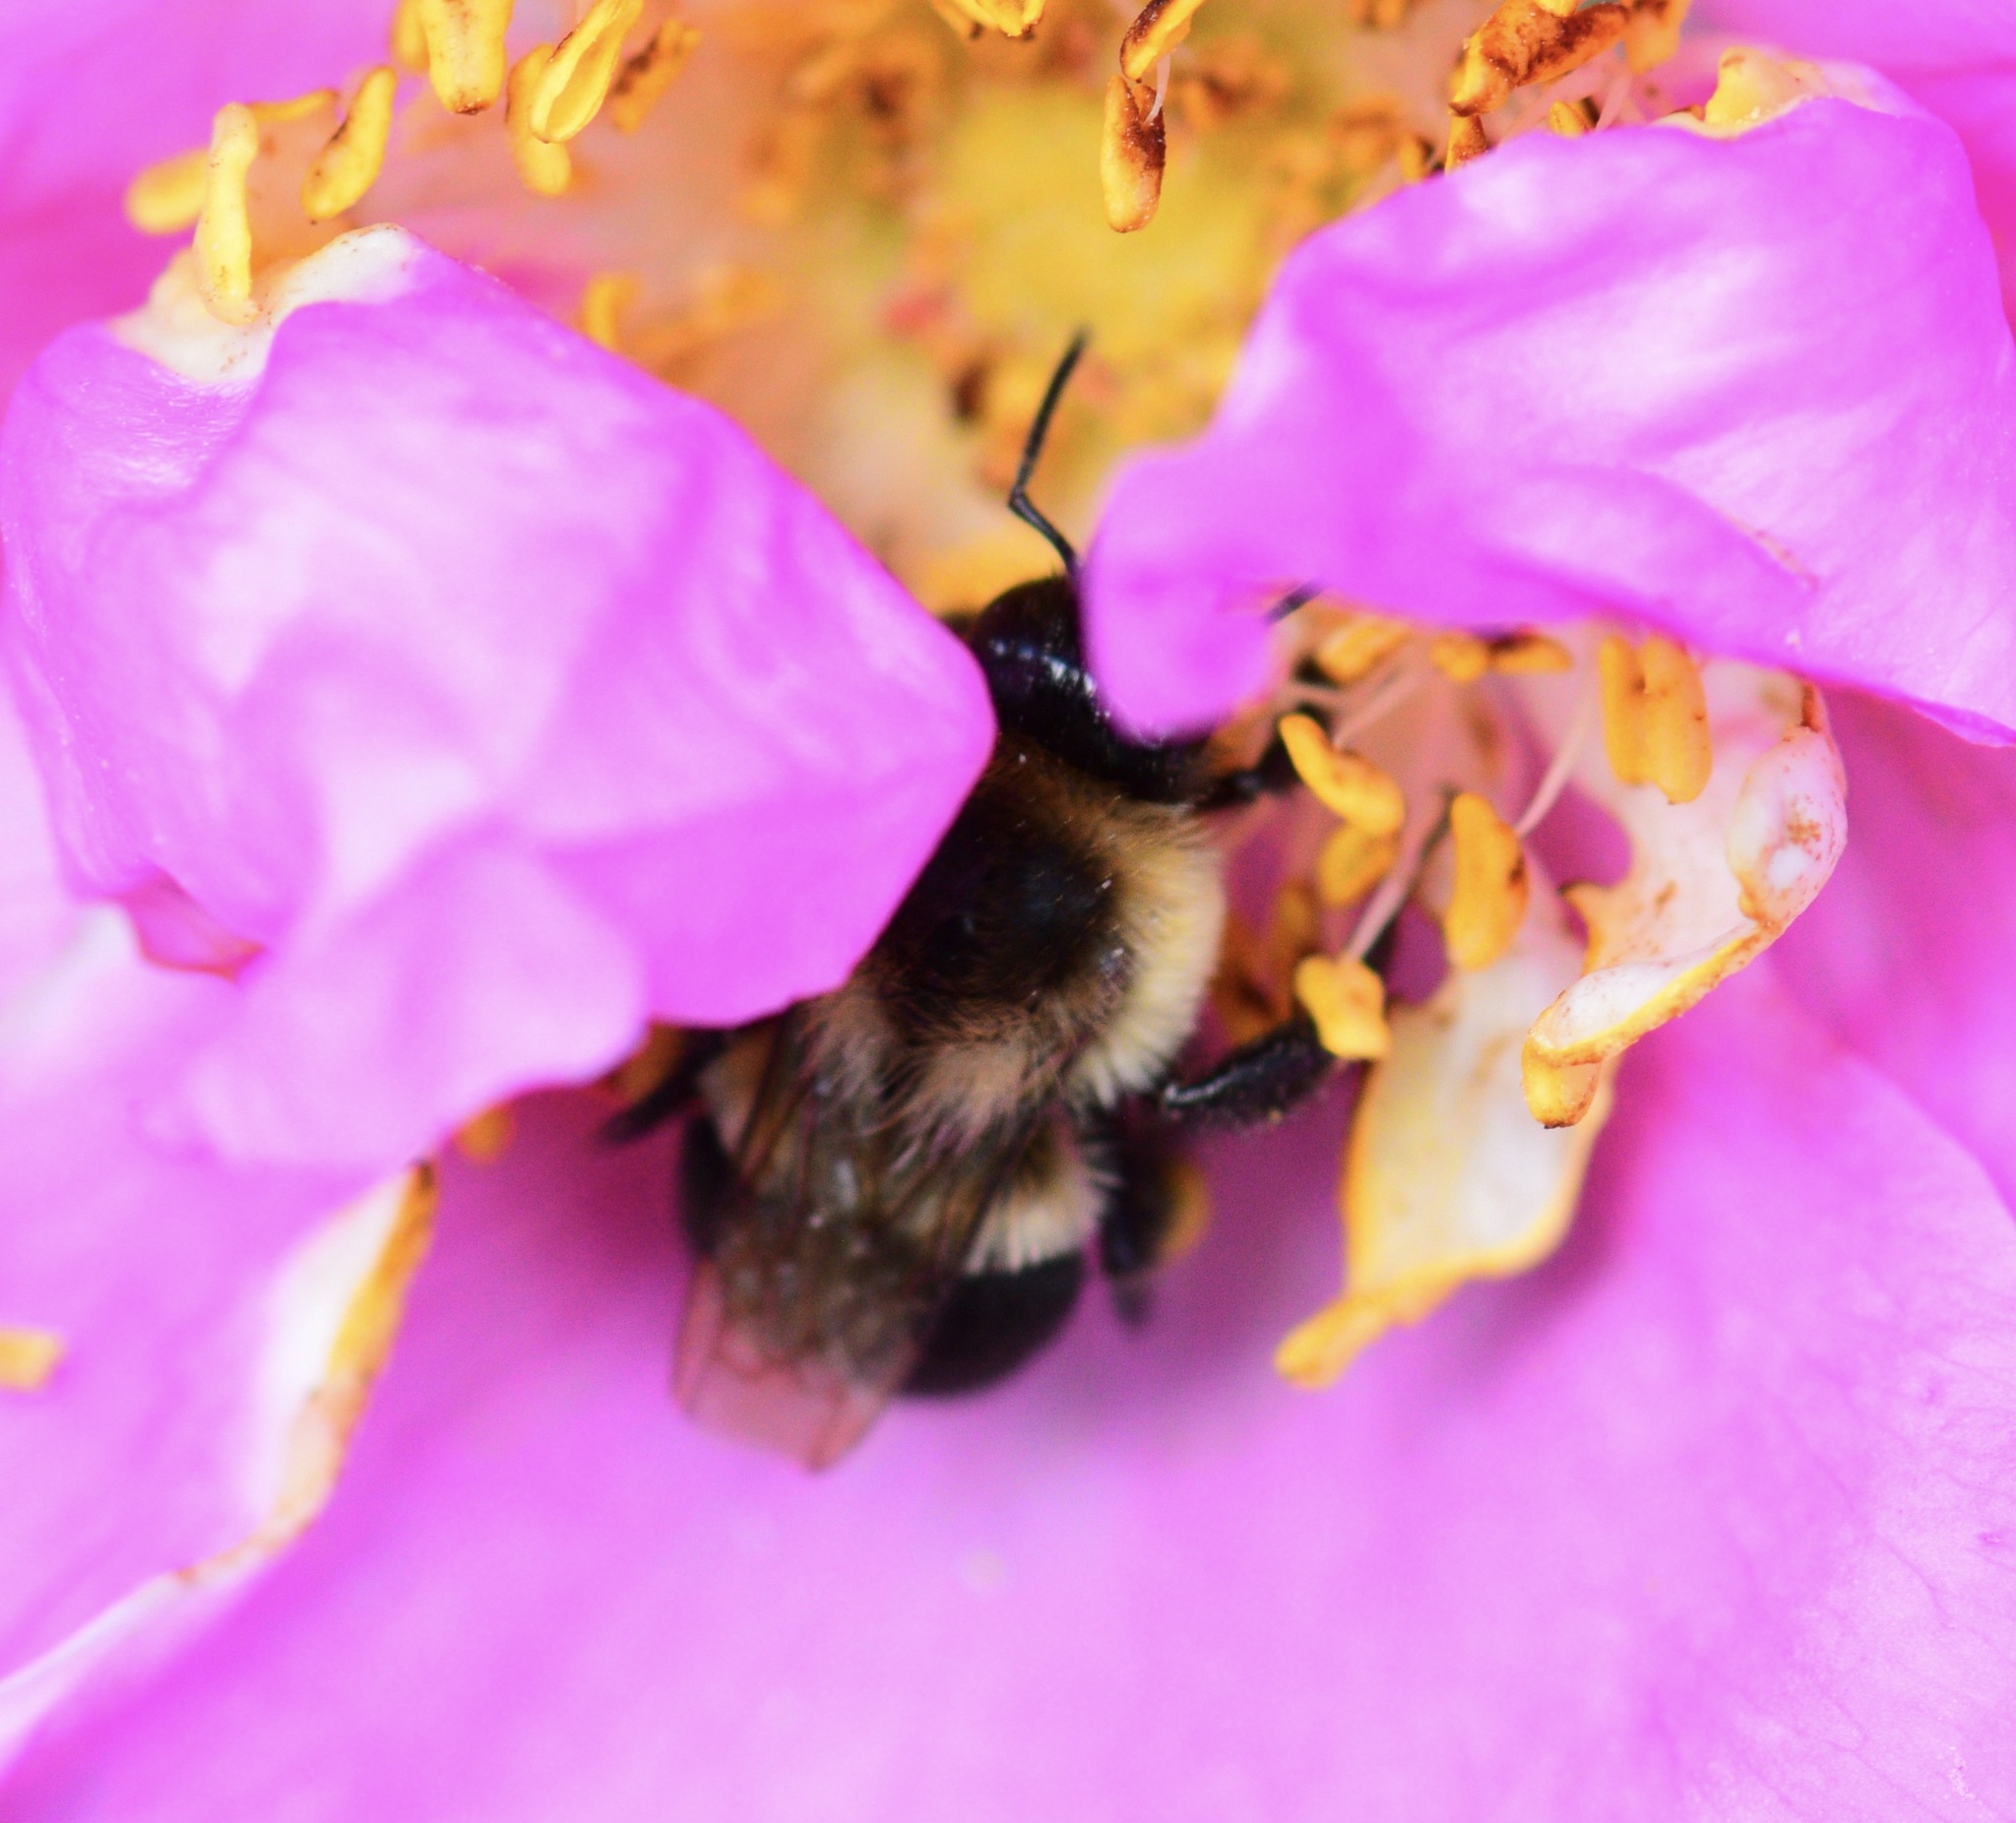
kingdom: Animalia
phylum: Arthropoda
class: Insecta
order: Hymenoptera
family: Apidae
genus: Bombus
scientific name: Bombus impatiens
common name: Common eastern bumble bee
